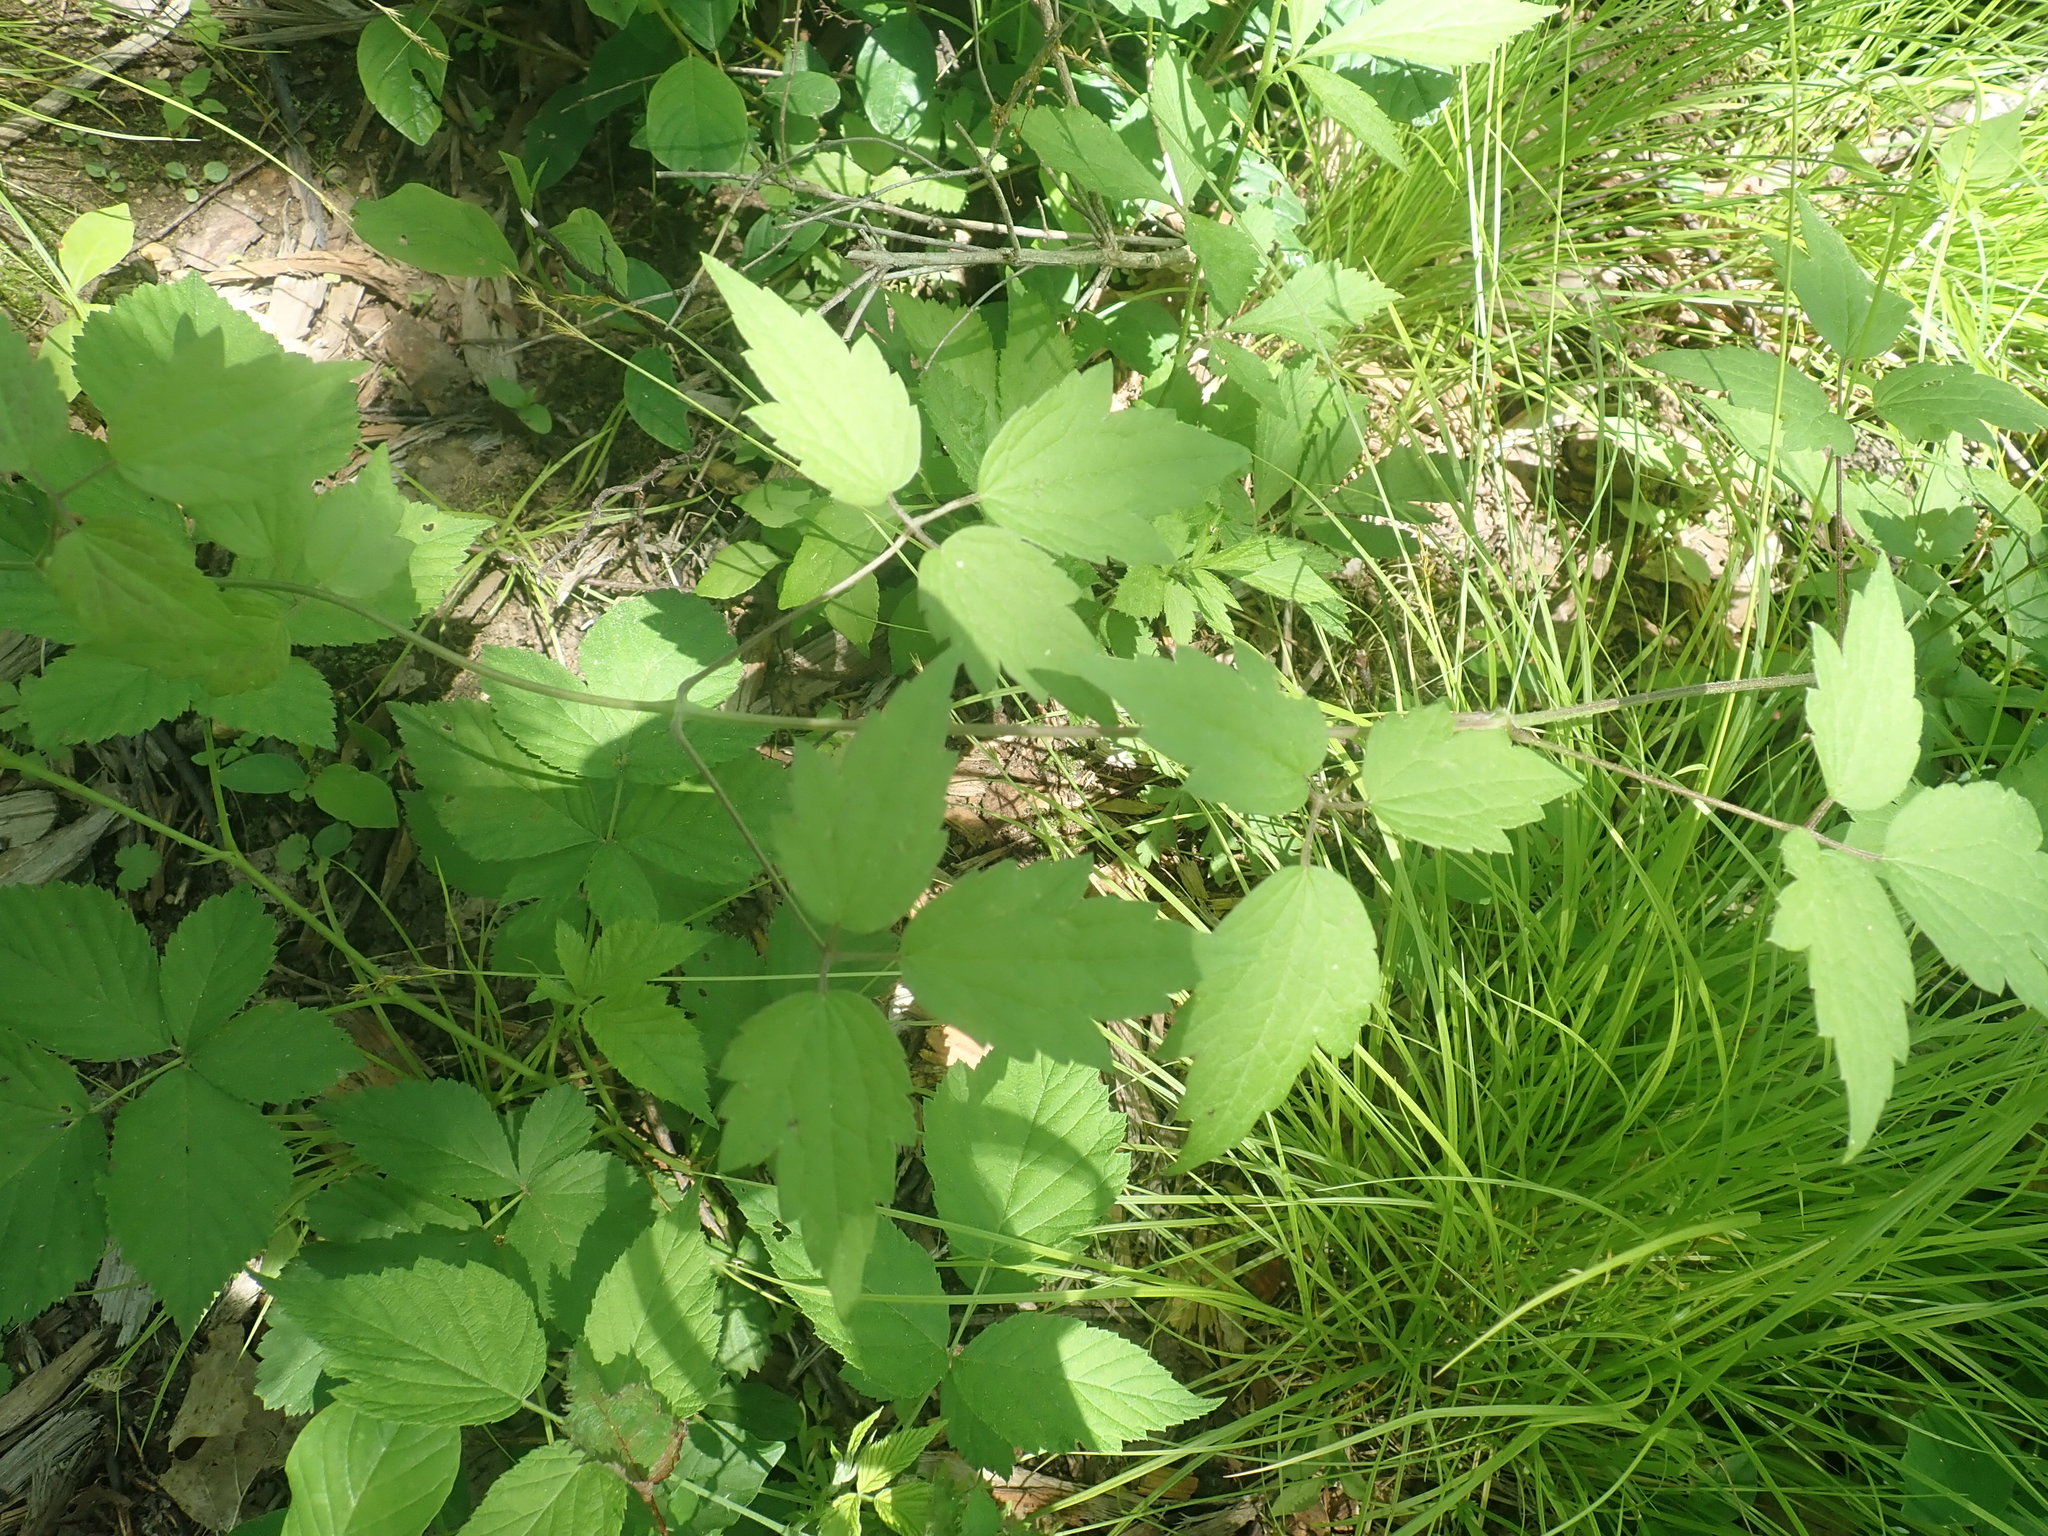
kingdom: Plantae
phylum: Tracheophyta
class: Magnoliopsida
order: Ranunculales
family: Ranunculaceae
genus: Clematis
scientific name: Clematis virginiana
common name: Virgin's-bower
